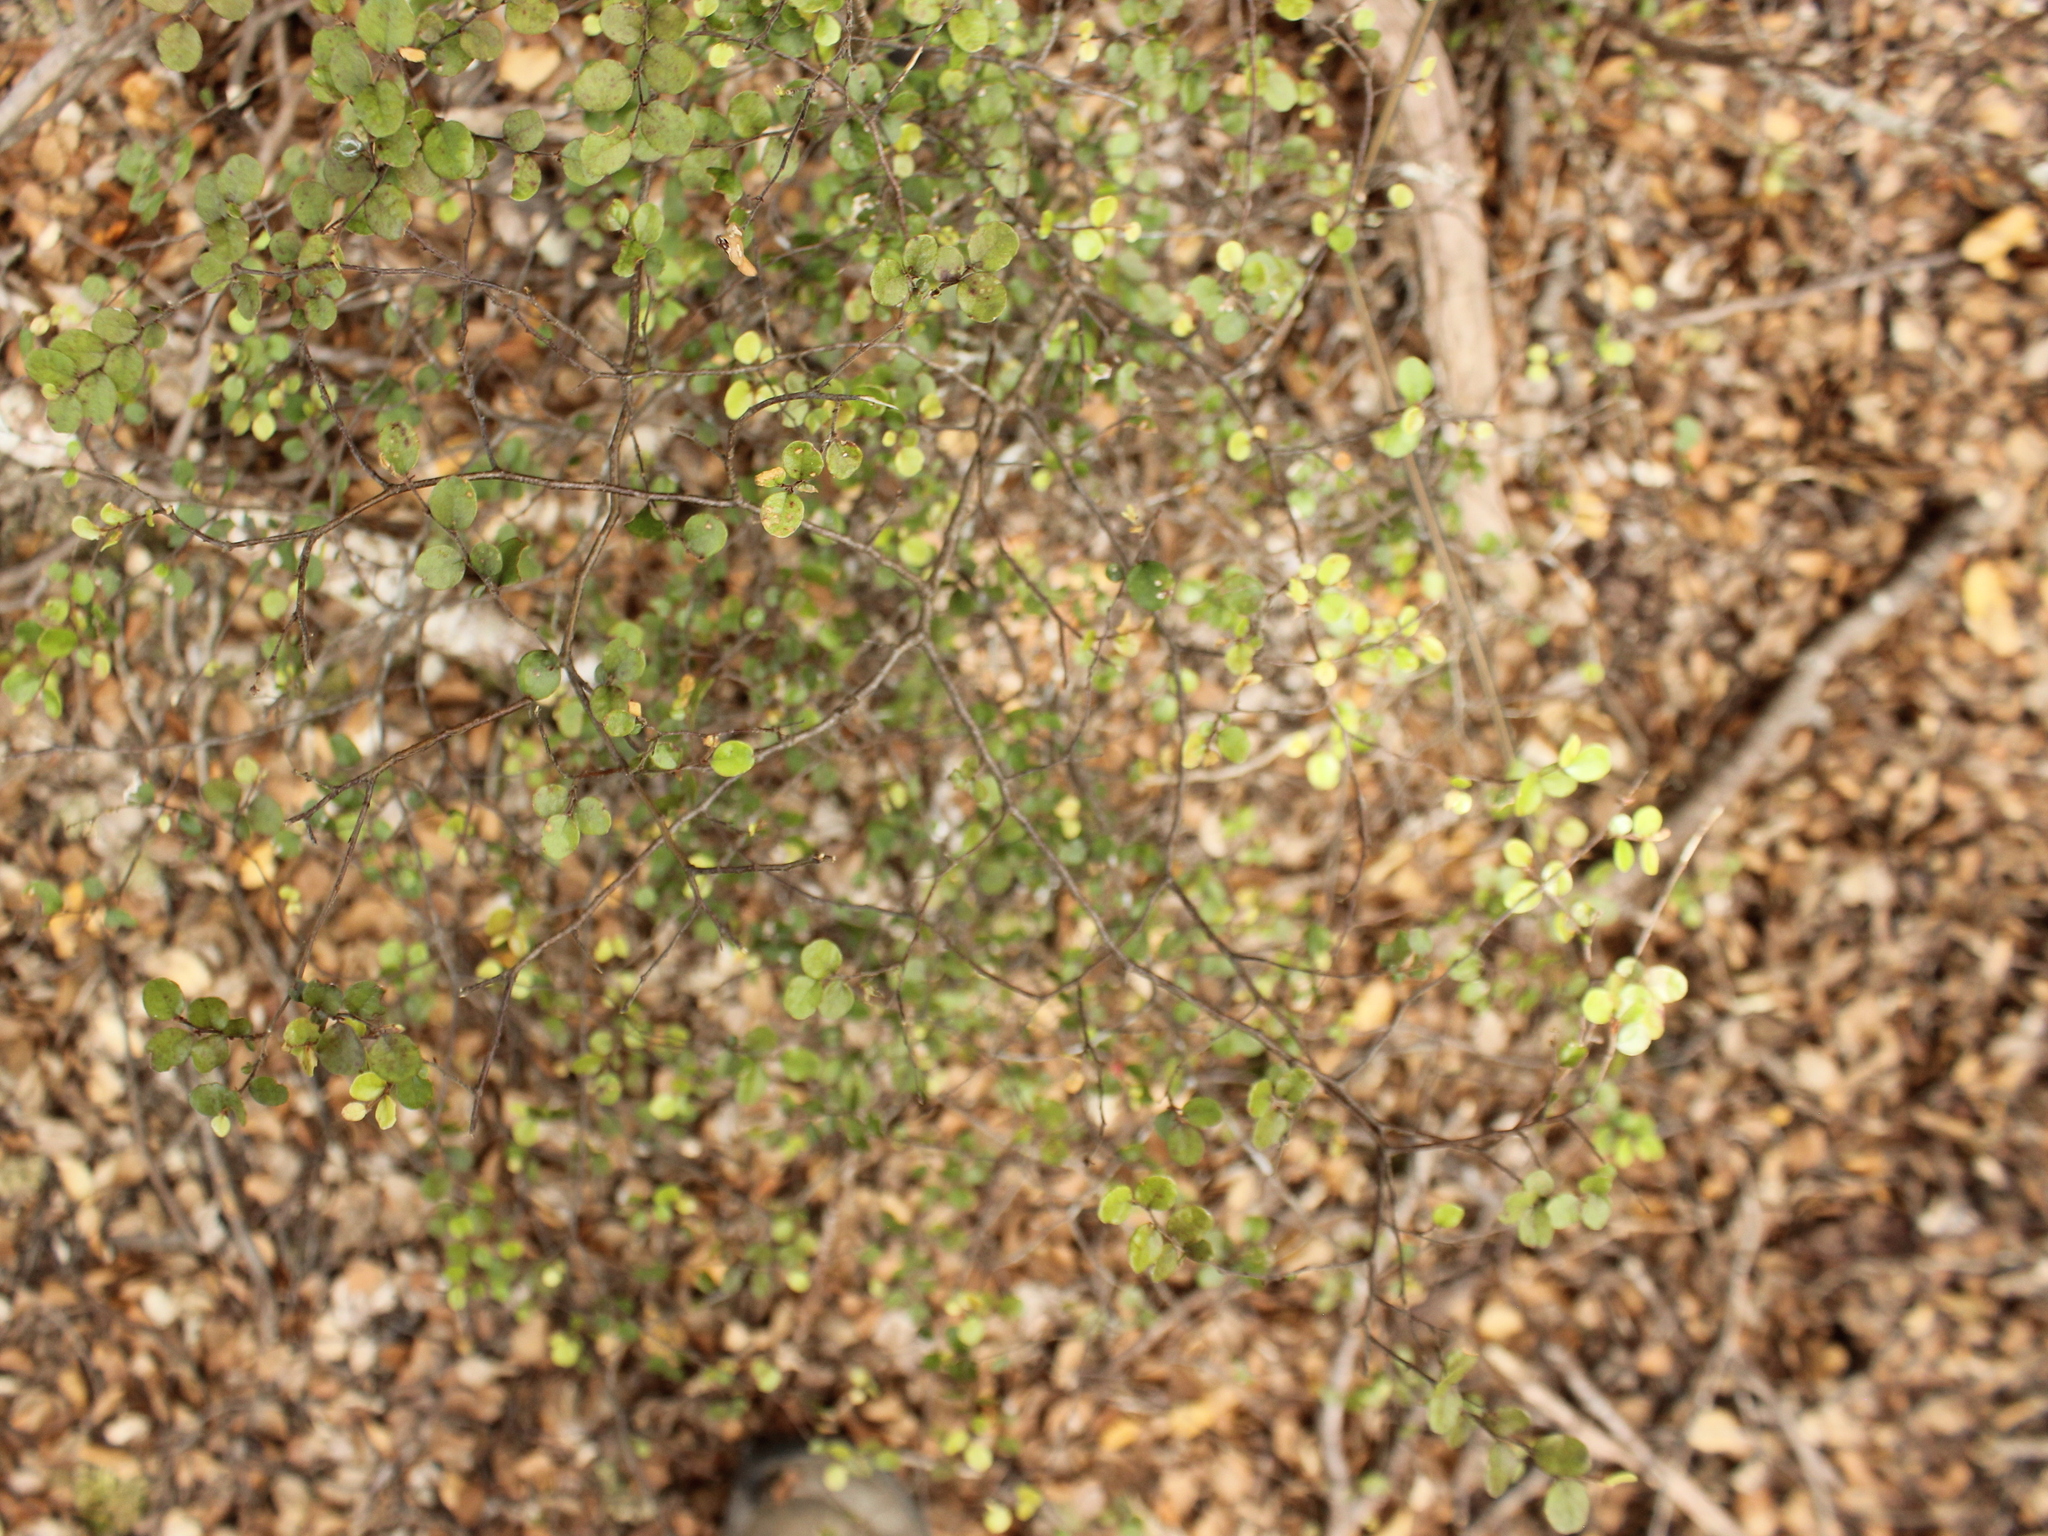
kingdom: Plantae
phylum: Tracheophyta
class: Magnoliopsida
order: Fagales
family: Nothofagaceae
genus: Nothofagus
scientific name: Nothofagus solandri
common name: Black beech
